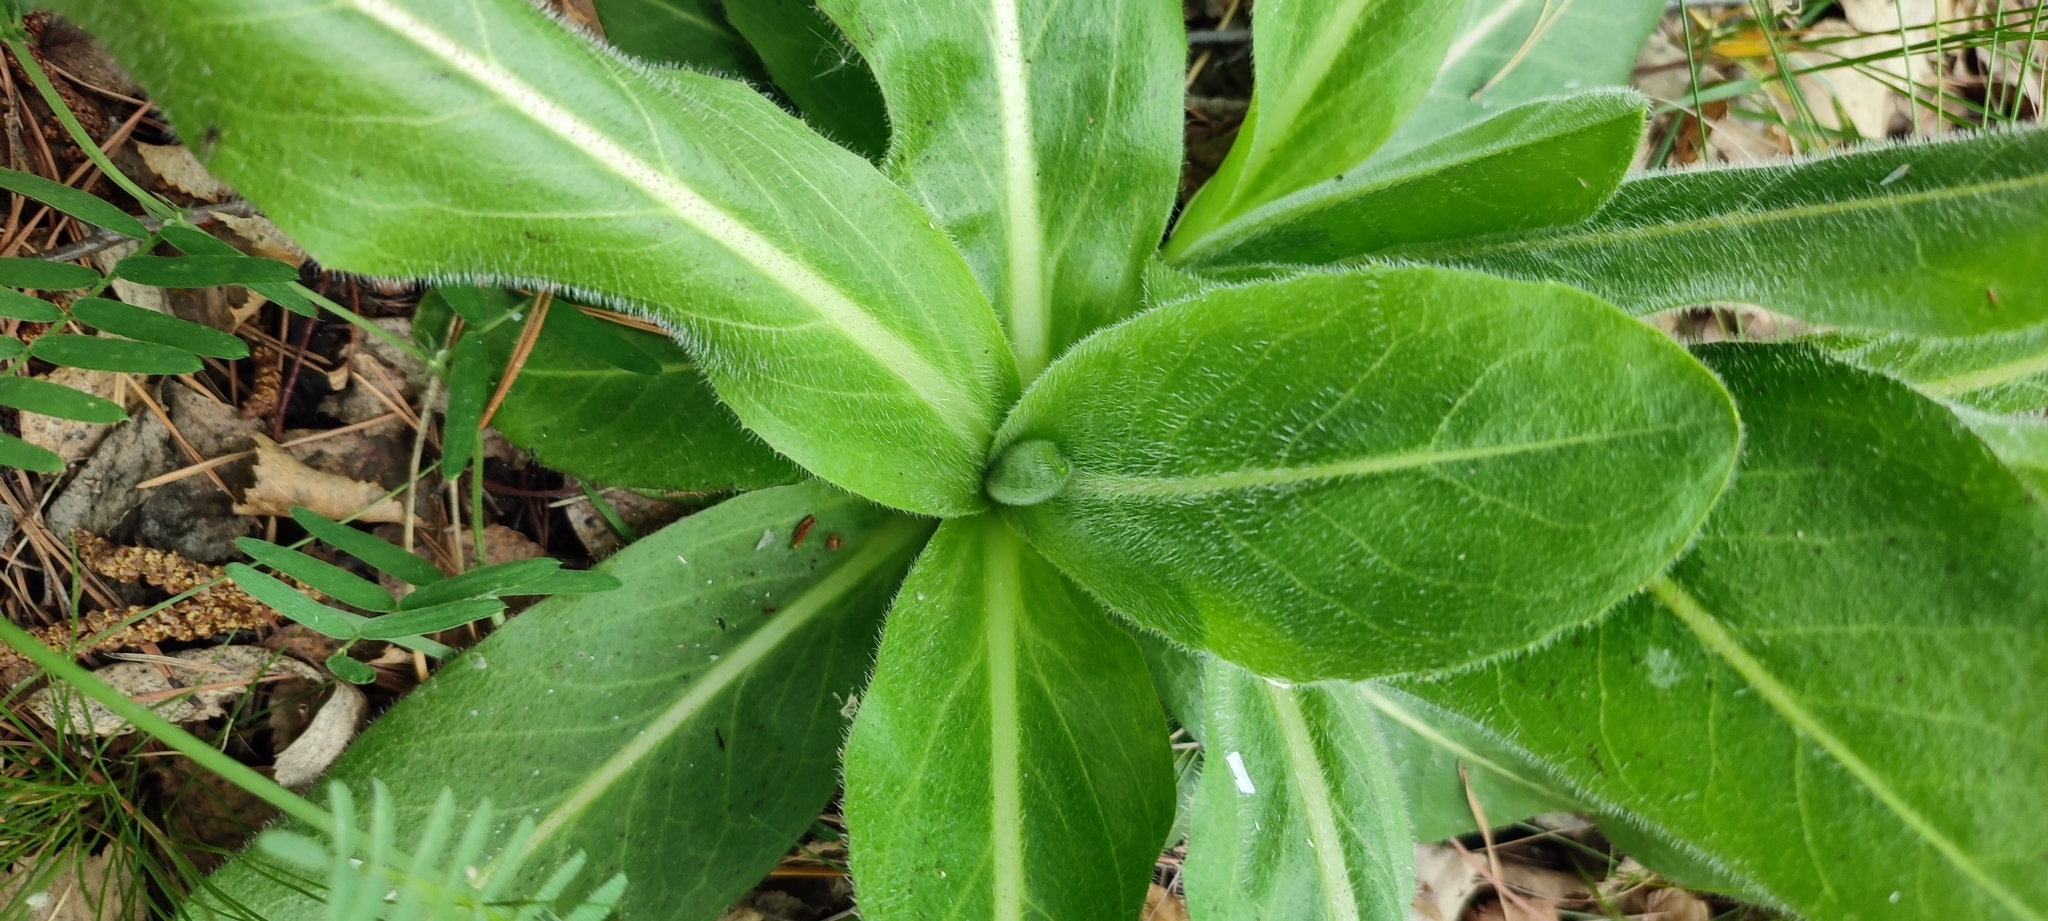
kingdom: Plantae
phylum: Tracheophyta
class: Magnoliopsida
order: Asterales
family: Asteraceae
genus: Trommsdorffia
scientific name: Trommsdorffia maculata
